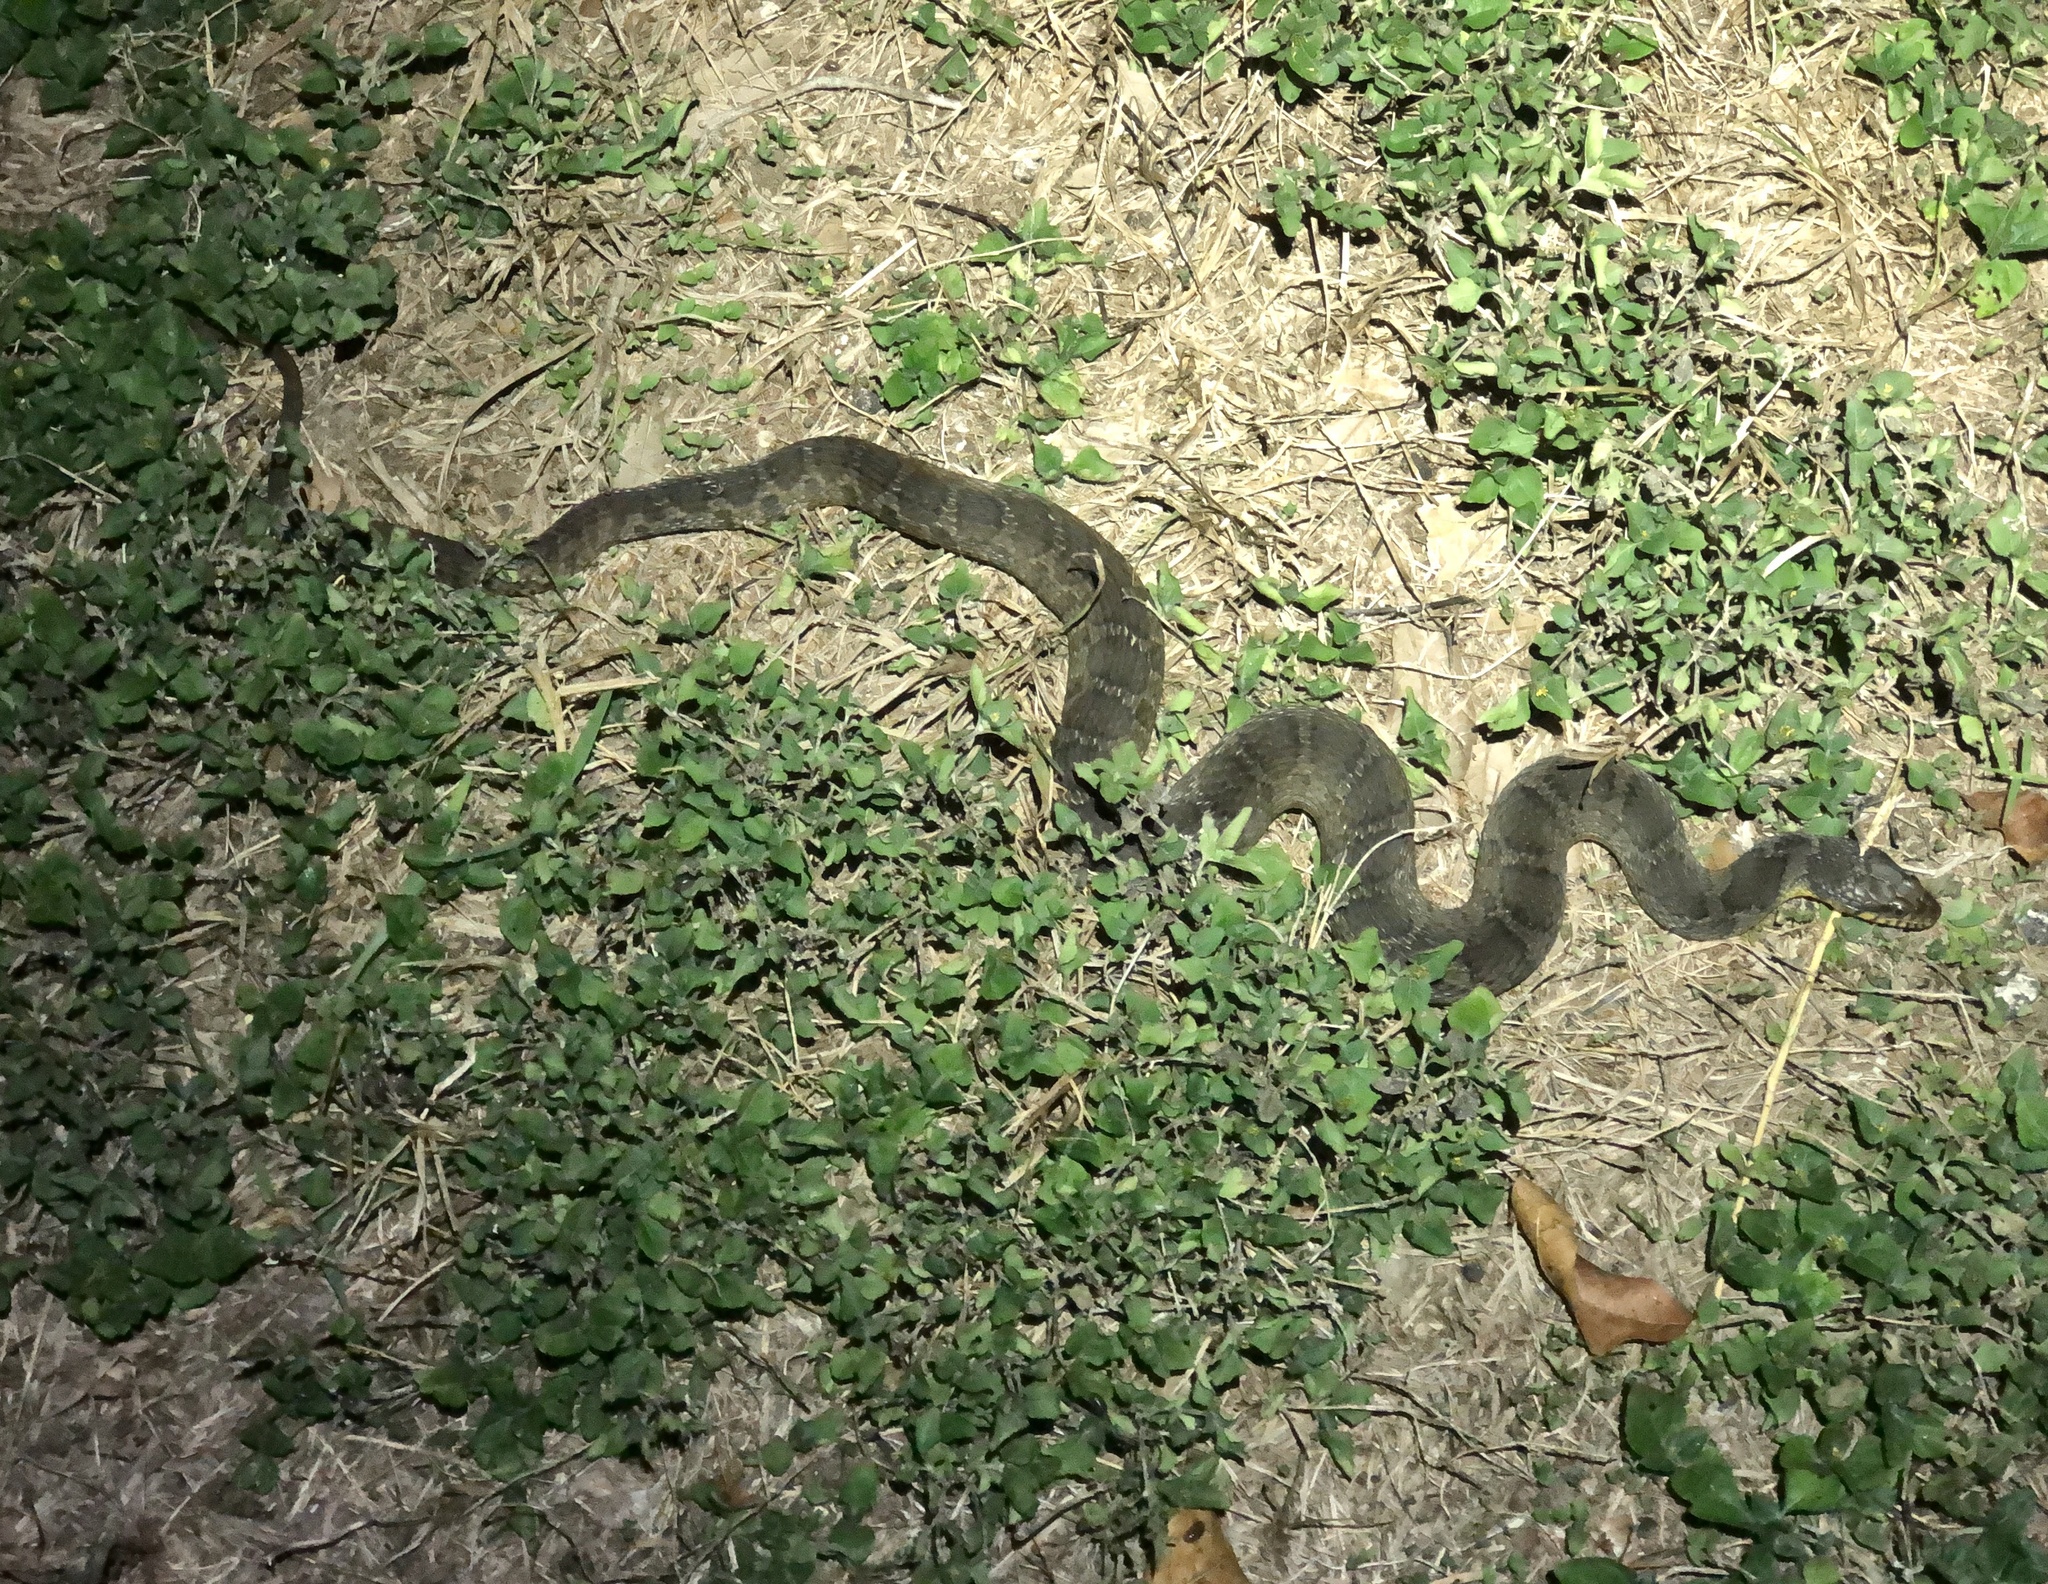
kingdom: Animalia
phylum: Chordata
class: Squamata
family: Colubridae
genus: Nerodia
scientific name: Nerodia erythrogaster
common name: Plainbelly water snake
